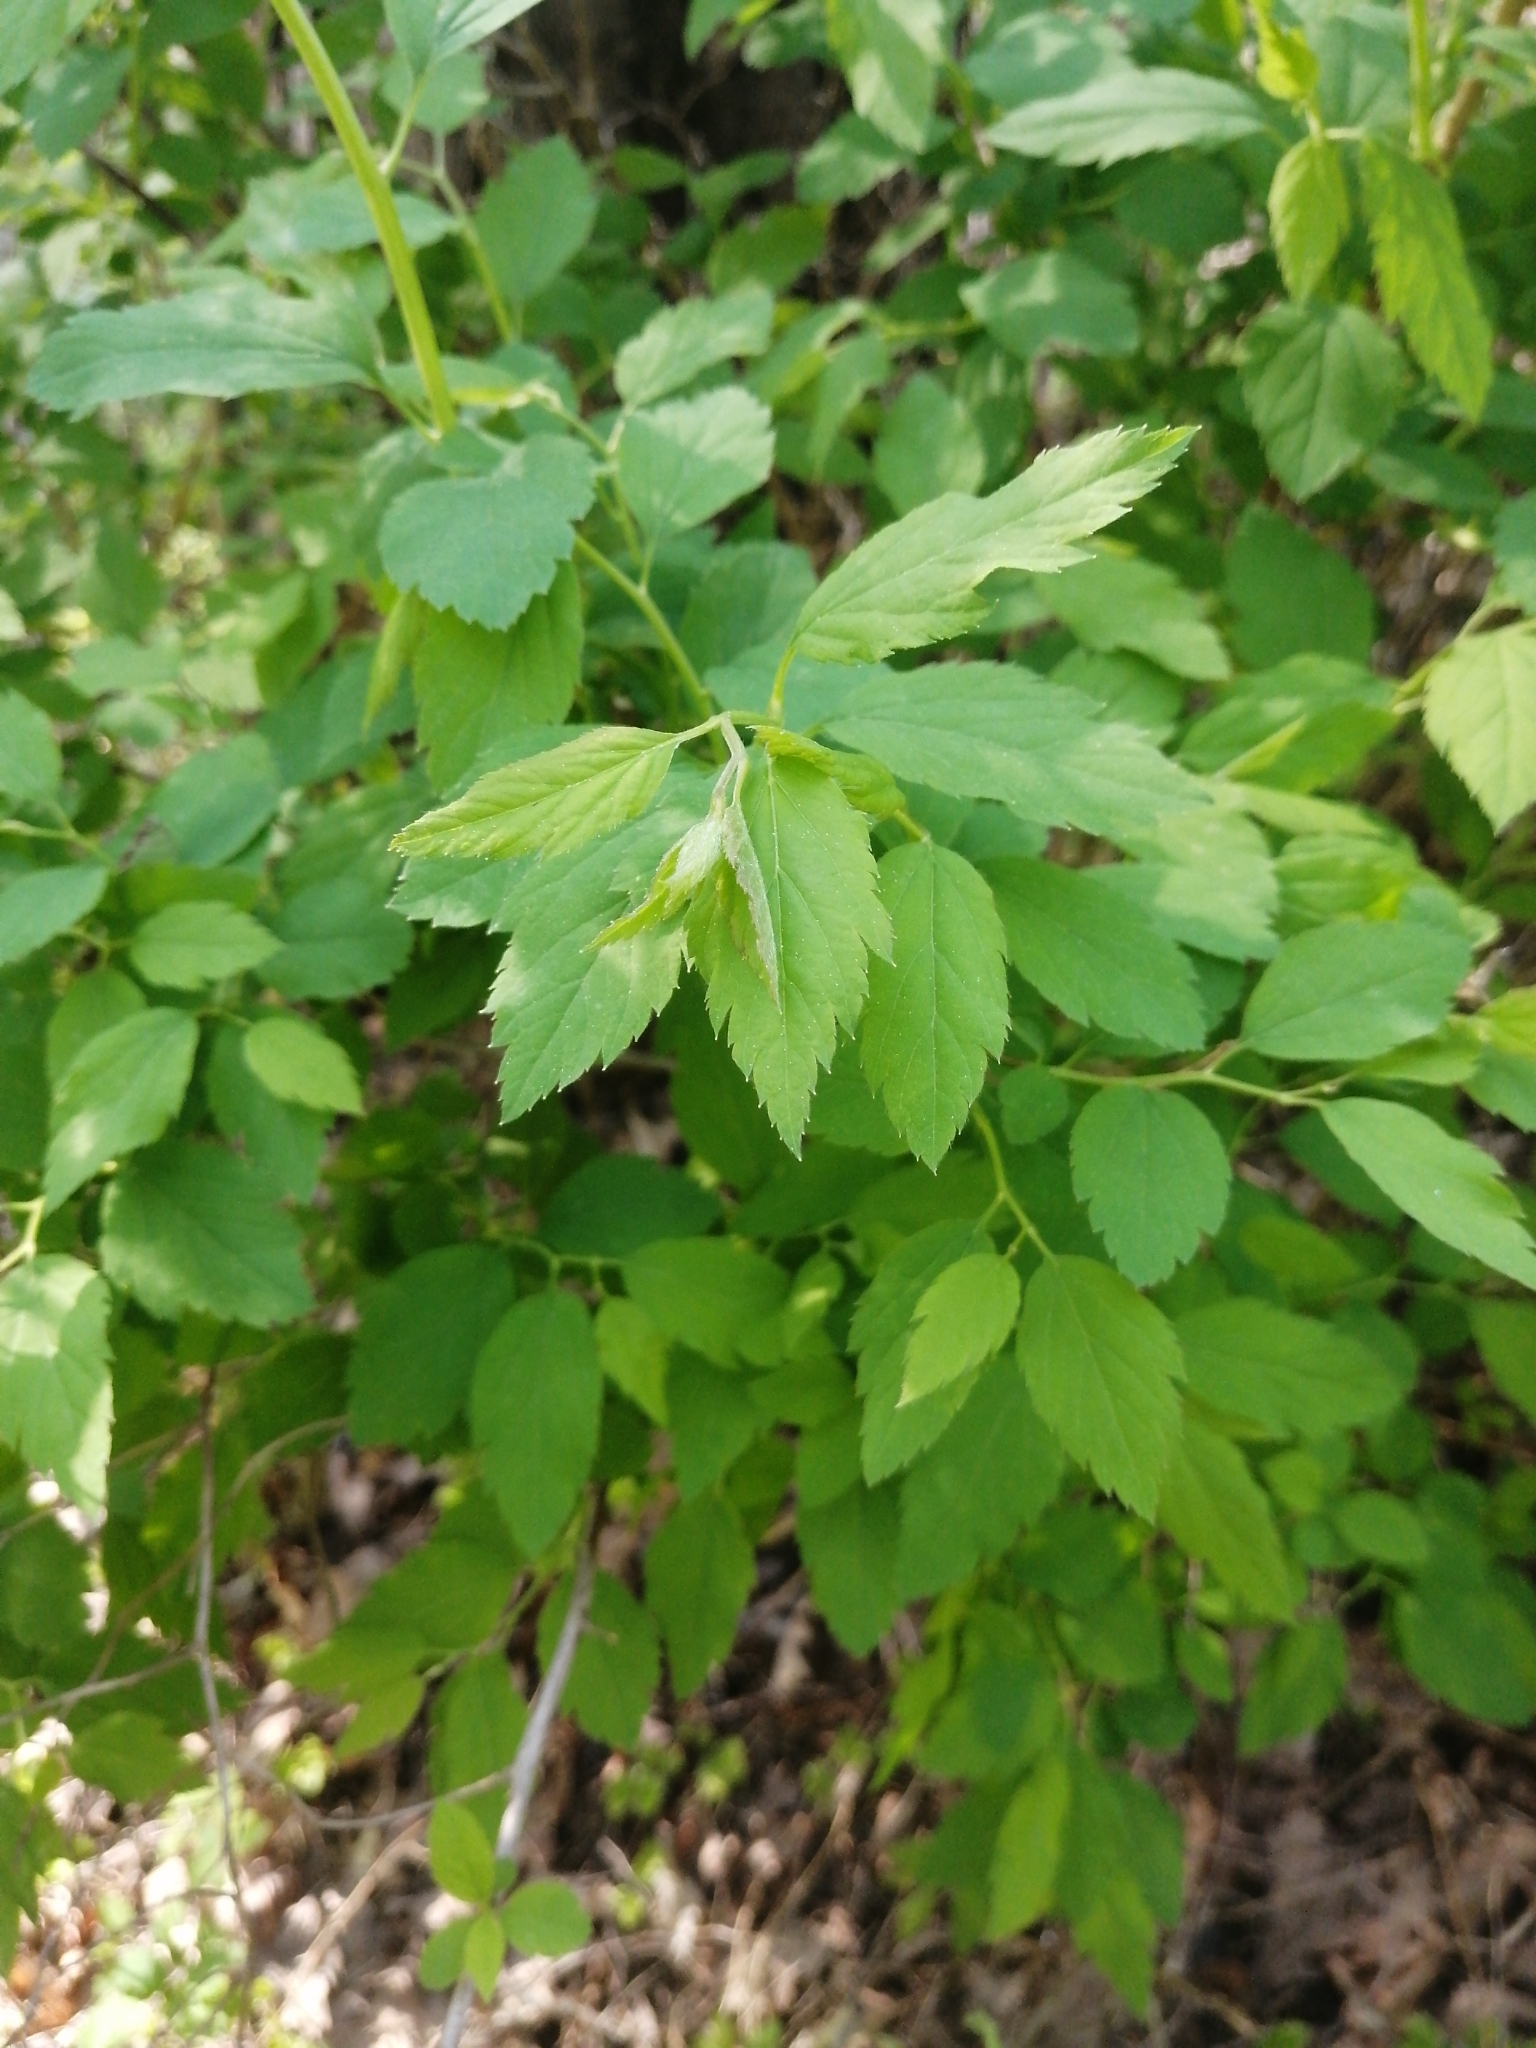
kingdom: Plantae
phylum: Tracheophyta
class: Magnoliopsida
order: Rosales
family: Rosaceae
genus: Spiraea
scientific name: Spiraea chamaedryfolia
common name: Elm-leaved spiraea
